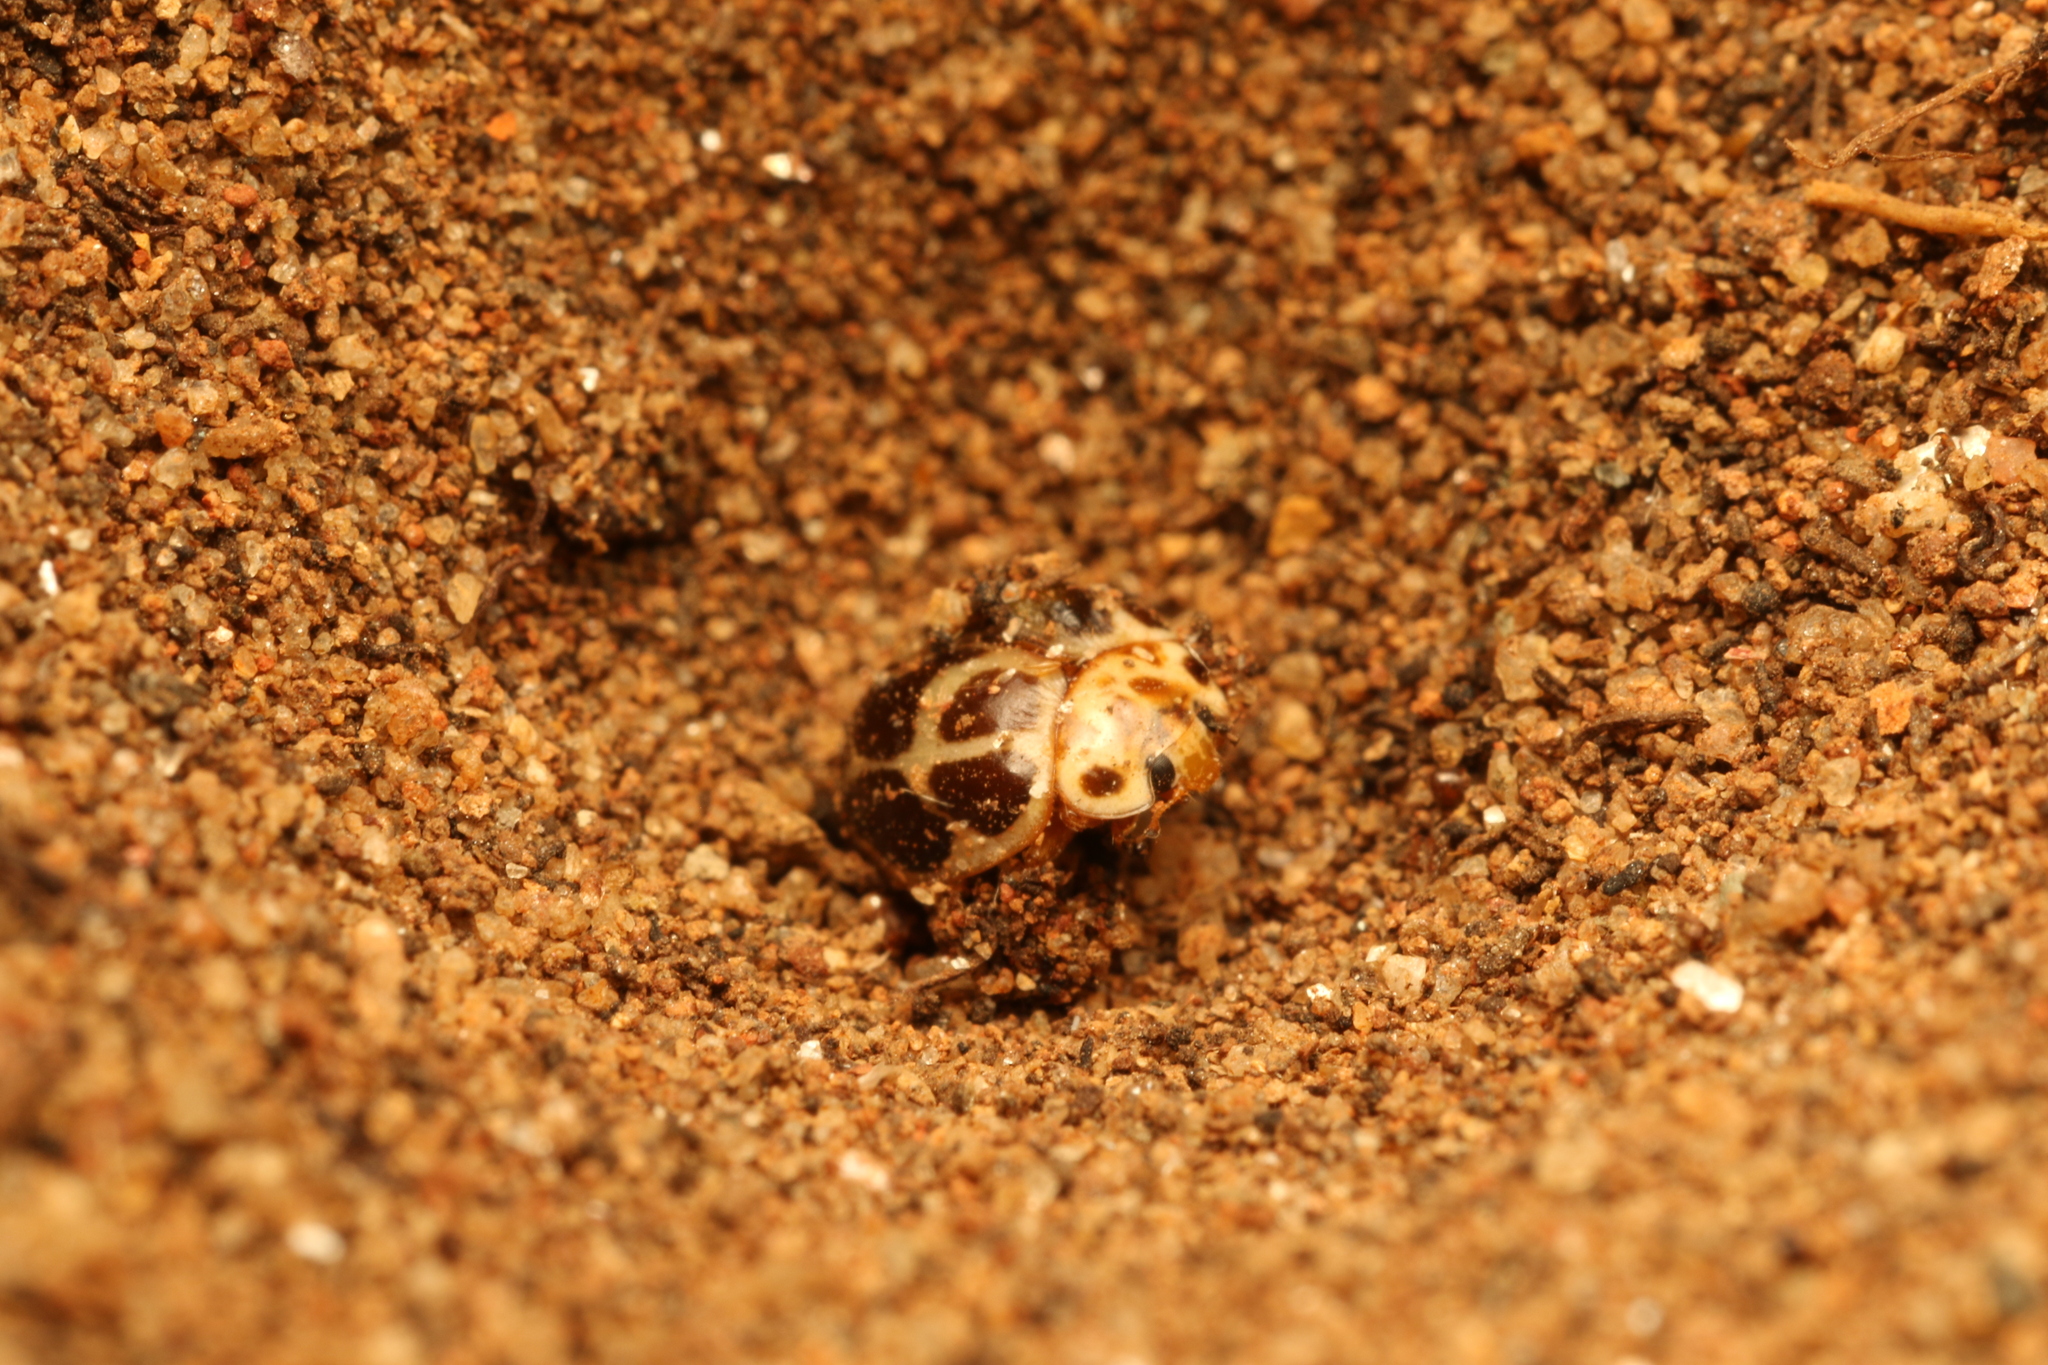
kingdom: Animalia
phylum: Arthropoda
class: Insecta
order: Coleoptera
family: Coccinellidae
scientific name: Coccinellidae
